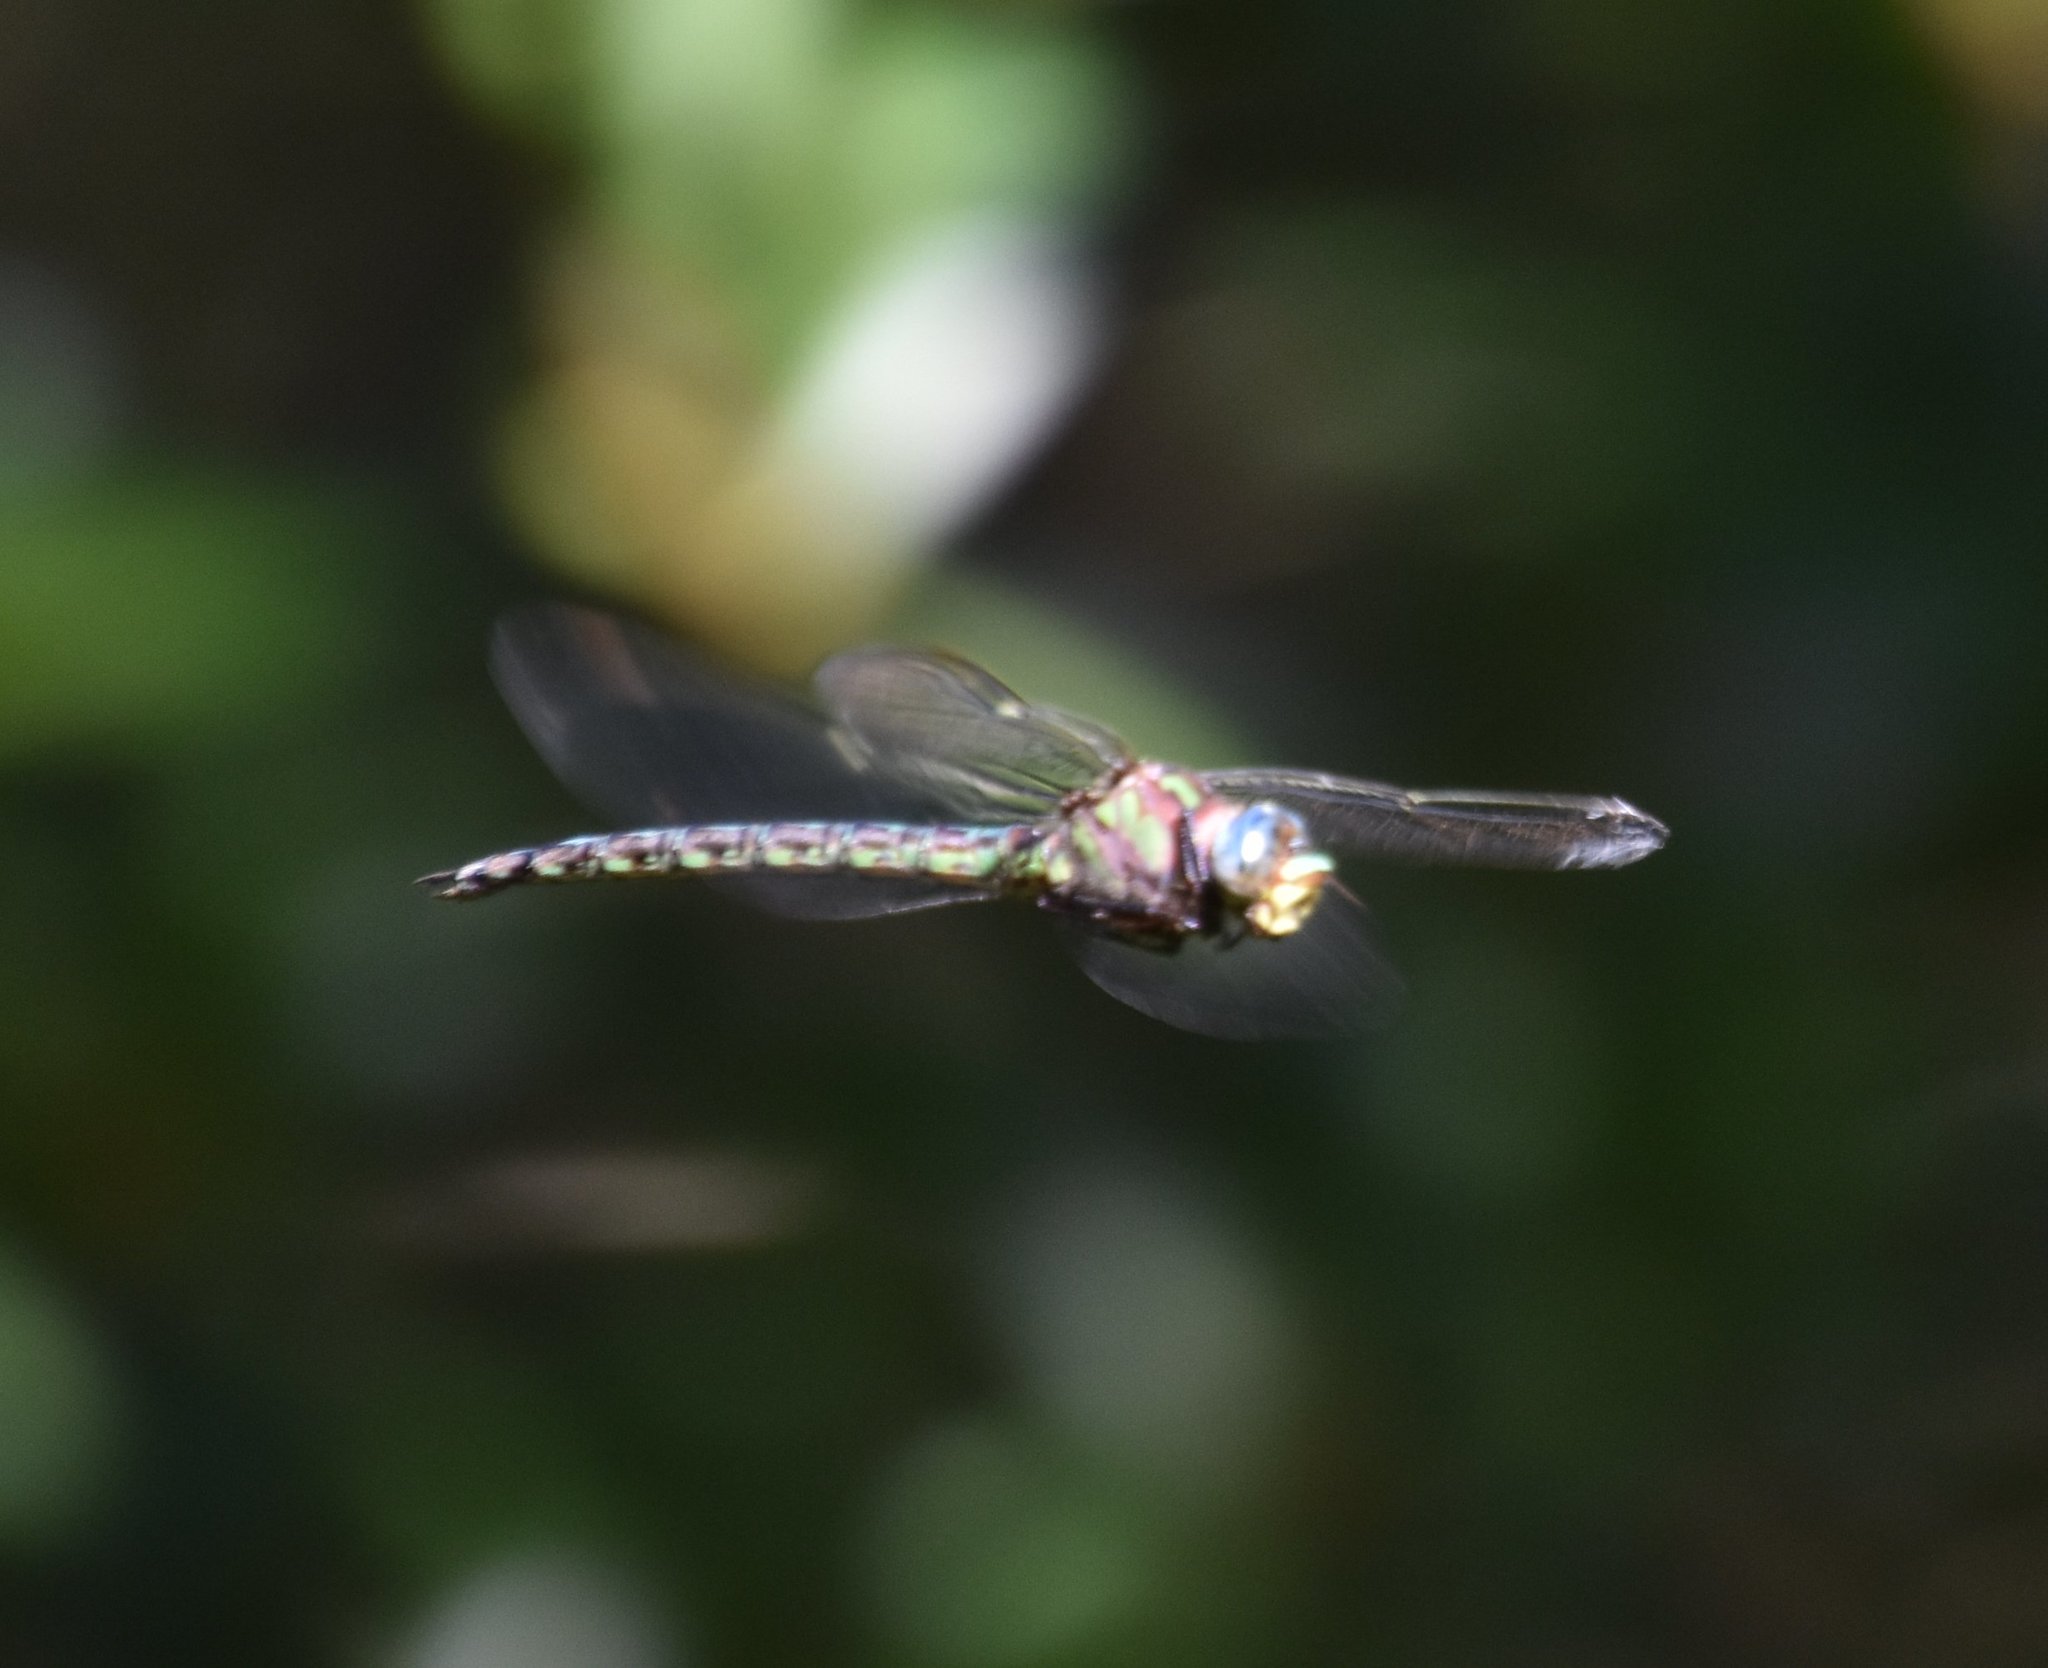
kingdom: Animalia
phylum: Arthropoda
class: Insecta
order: Odonata
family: Aeshnidae
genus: Nasiaeschna
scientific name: Nasiaeschna pentacantha
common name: Cyrano darner
